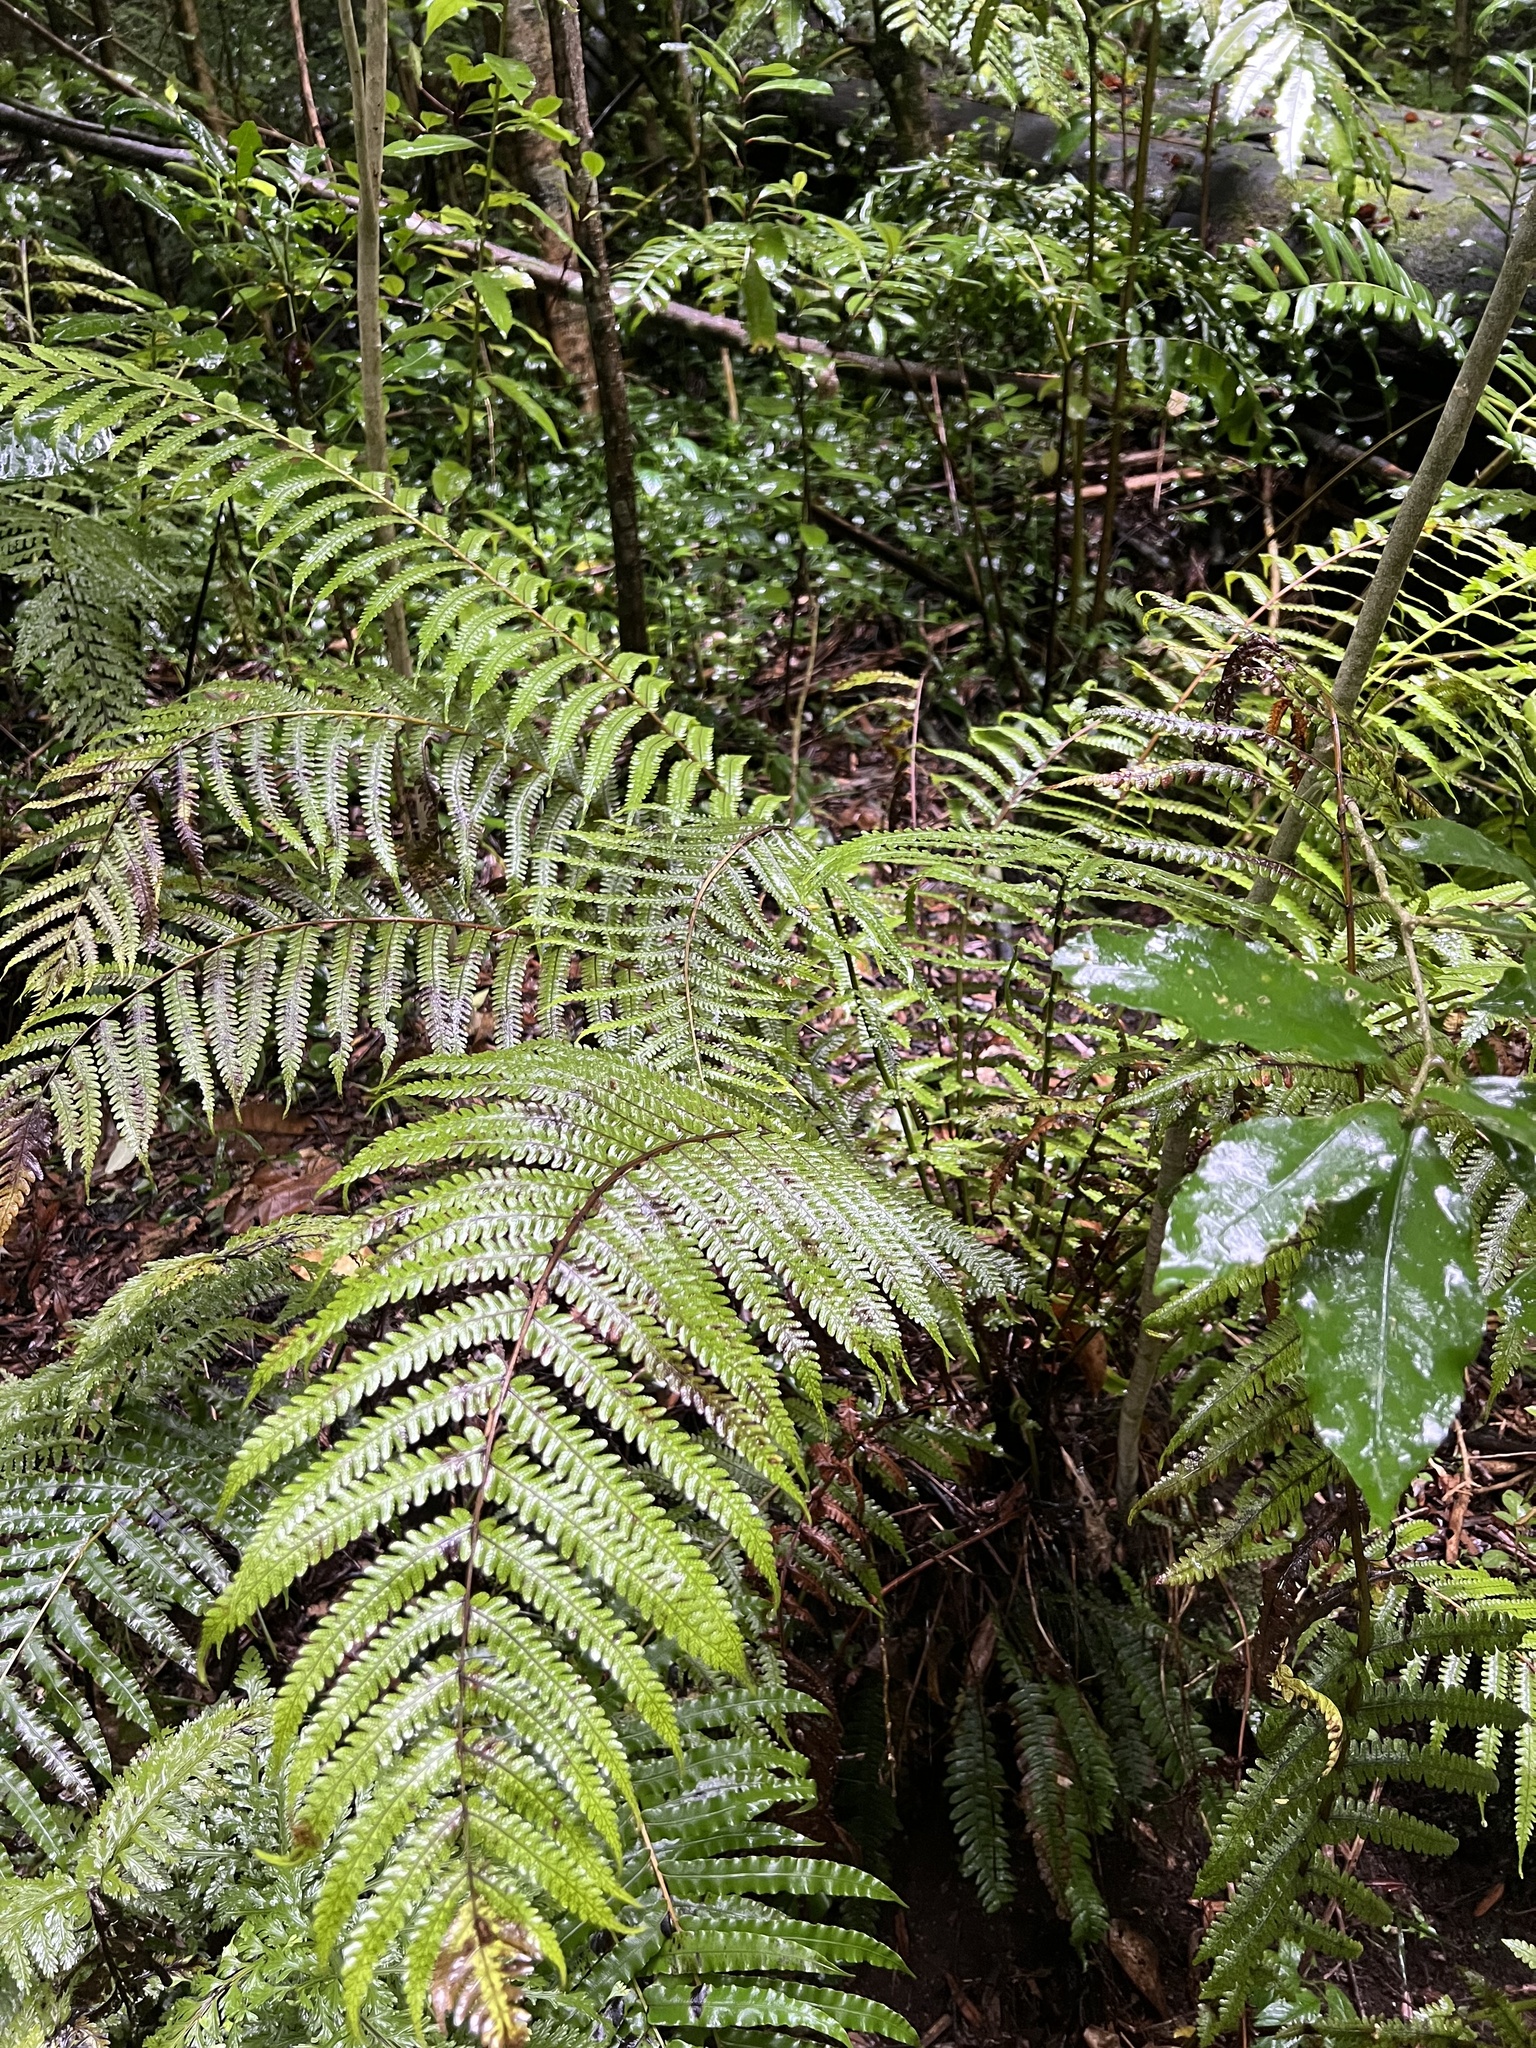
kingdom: Plantae
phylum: Tracheophyta
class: Polypodiopsida
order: Polypodiales
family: Thelypteridaceae
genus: Pakau
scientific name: Pakau pennigera
